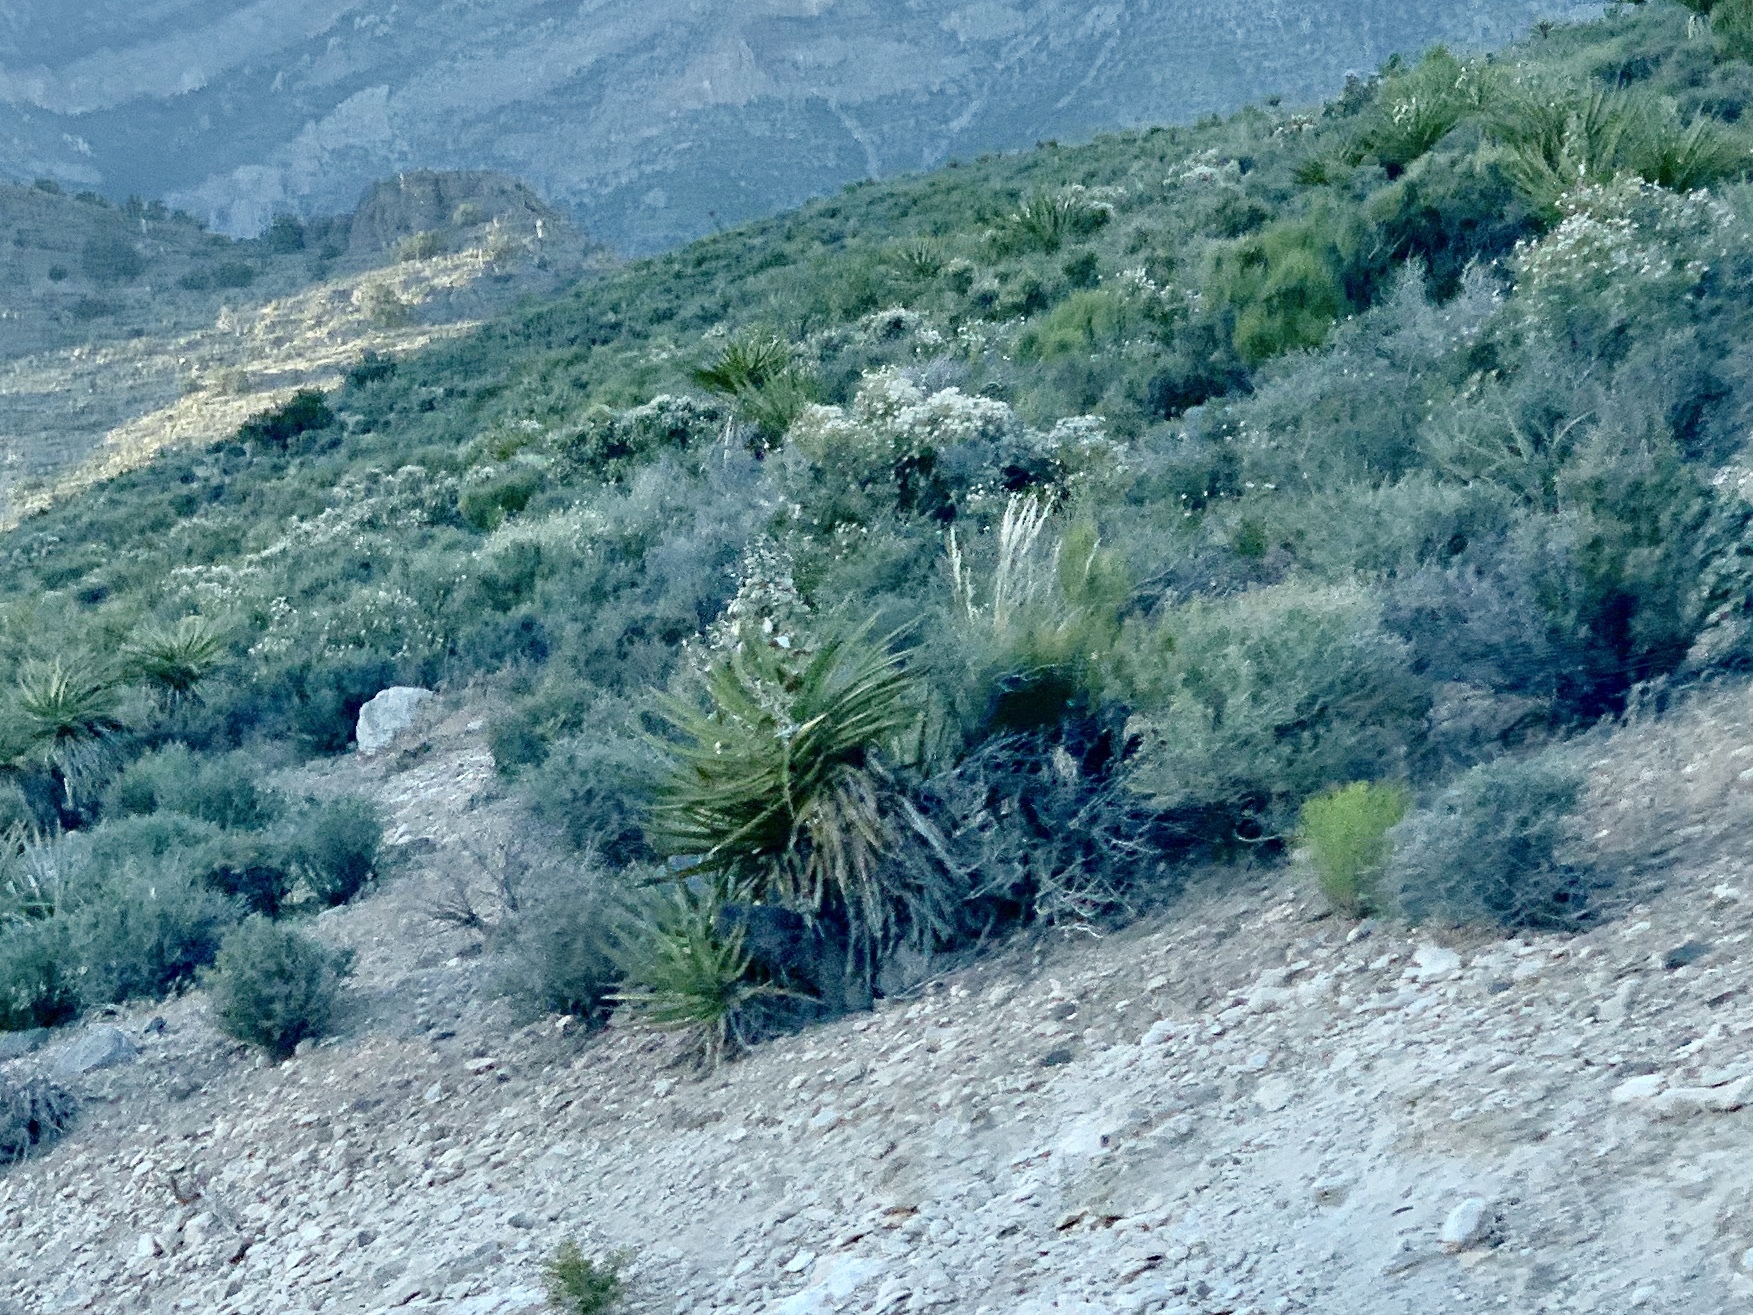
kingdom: Plantae
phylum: Tracheophyta
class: Liliopsida
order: Asparagales
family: Asparagaceae
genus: Yucca
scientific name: Yucca schidigera
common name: Mojave yucca
